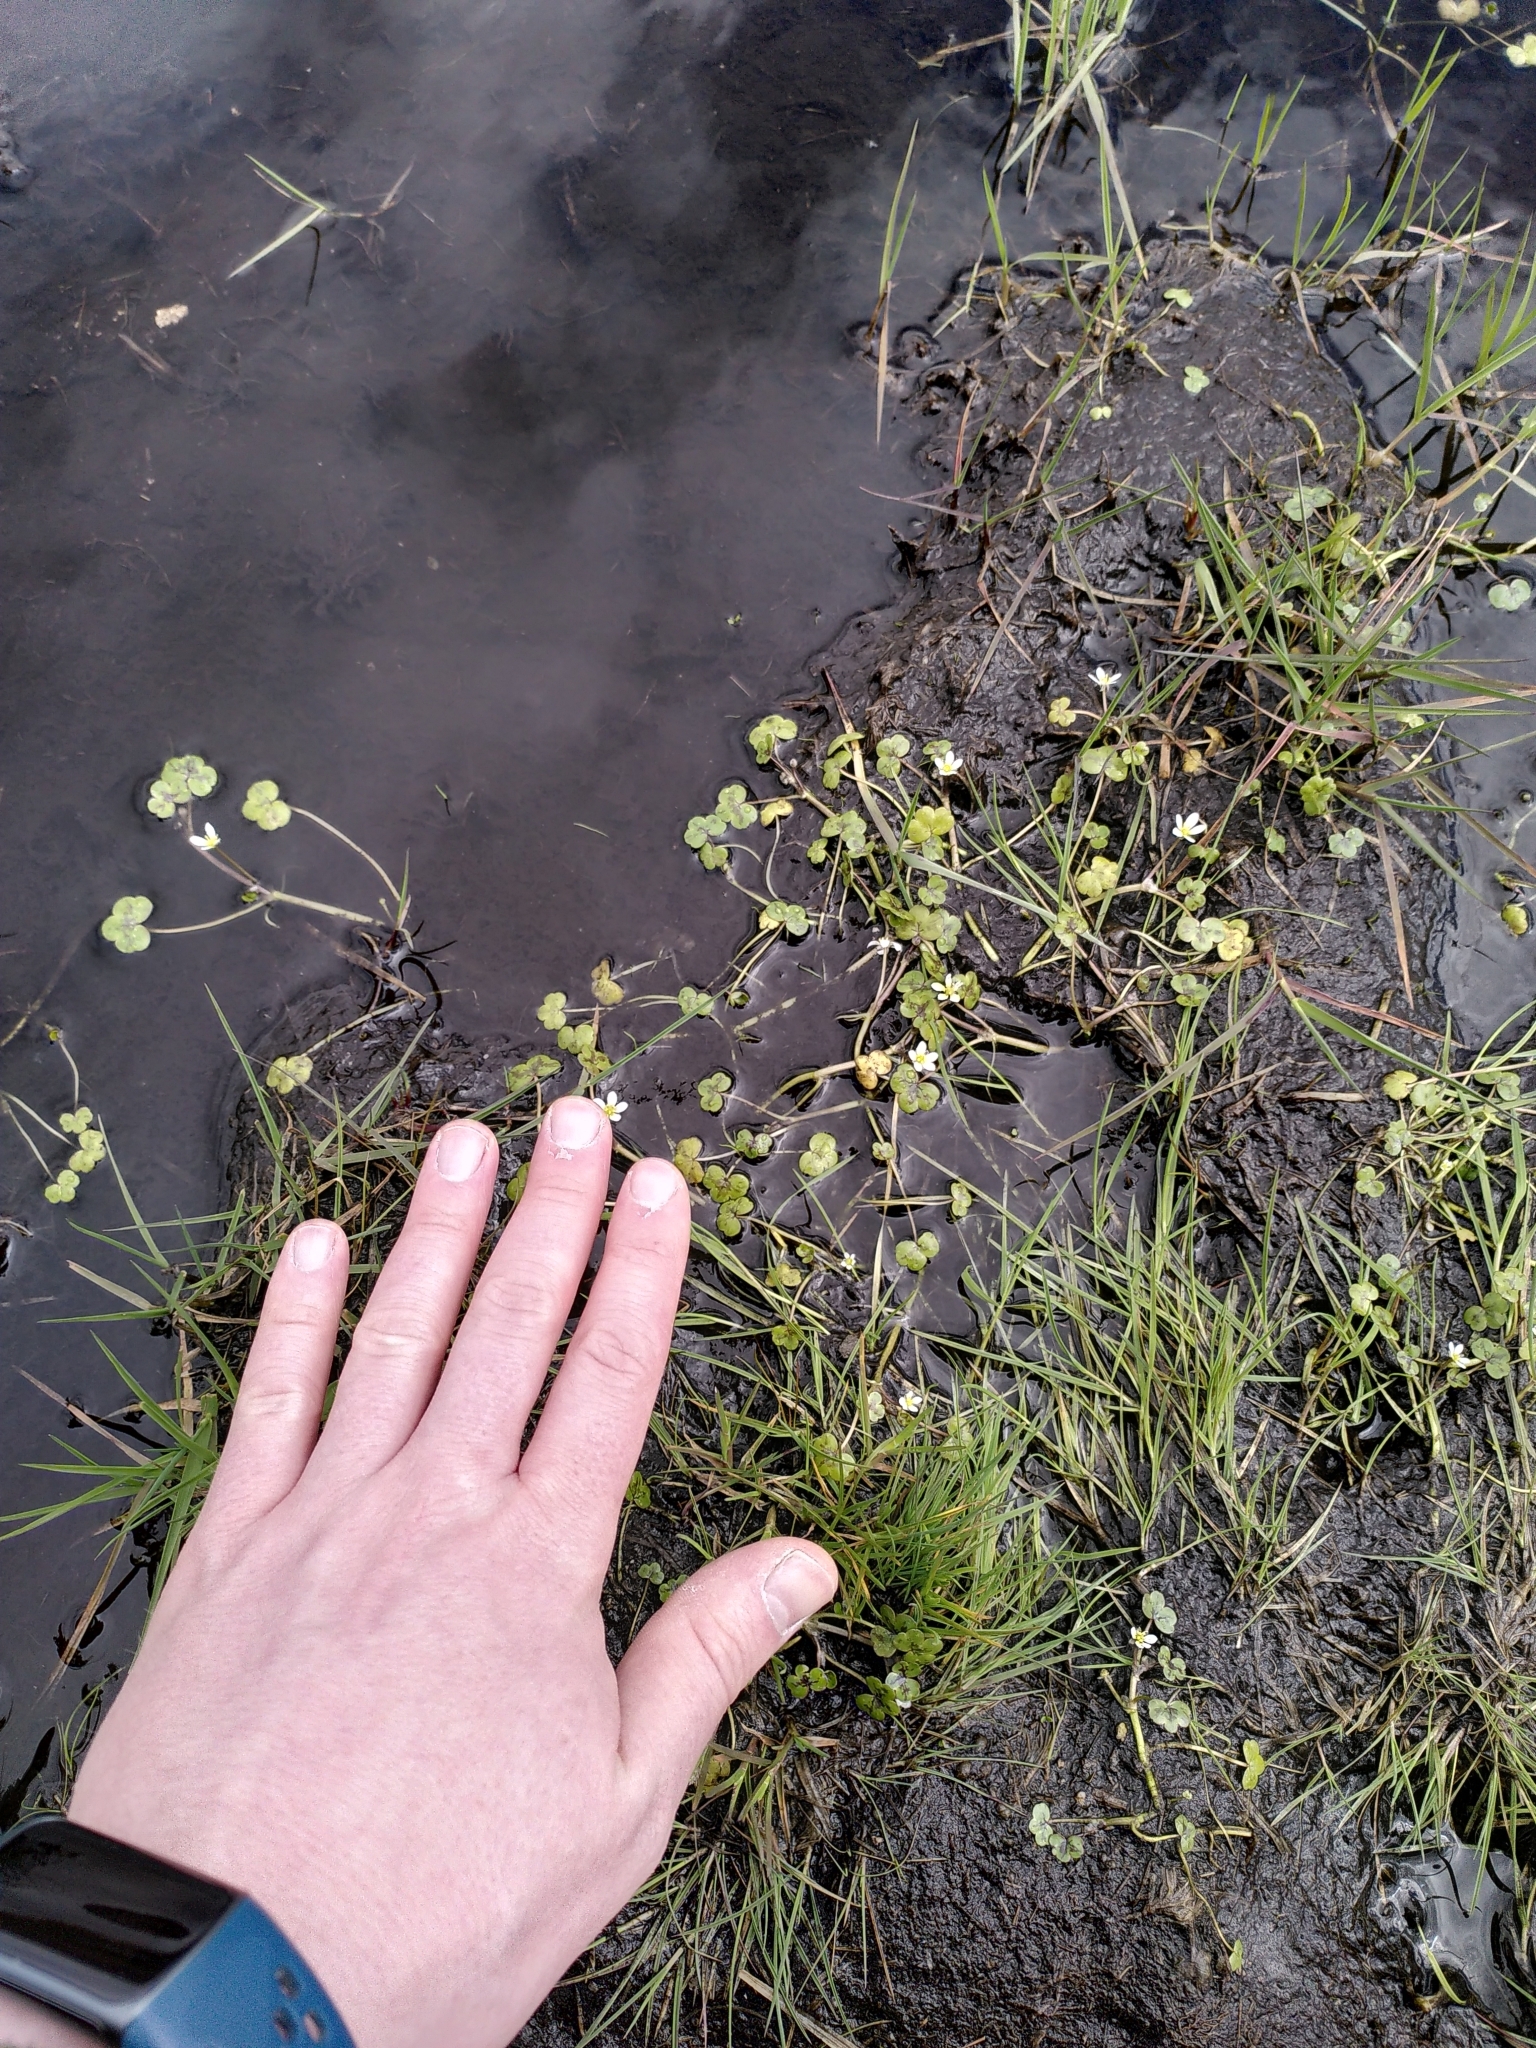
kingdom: Plantae
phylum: Tracheophyta
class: Magnoliopsida
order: Ranunculales
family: Ranunculaceae
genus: Ranunculus
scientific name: Ranunculus omiophyllus
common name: Round-leaved crowfoot
